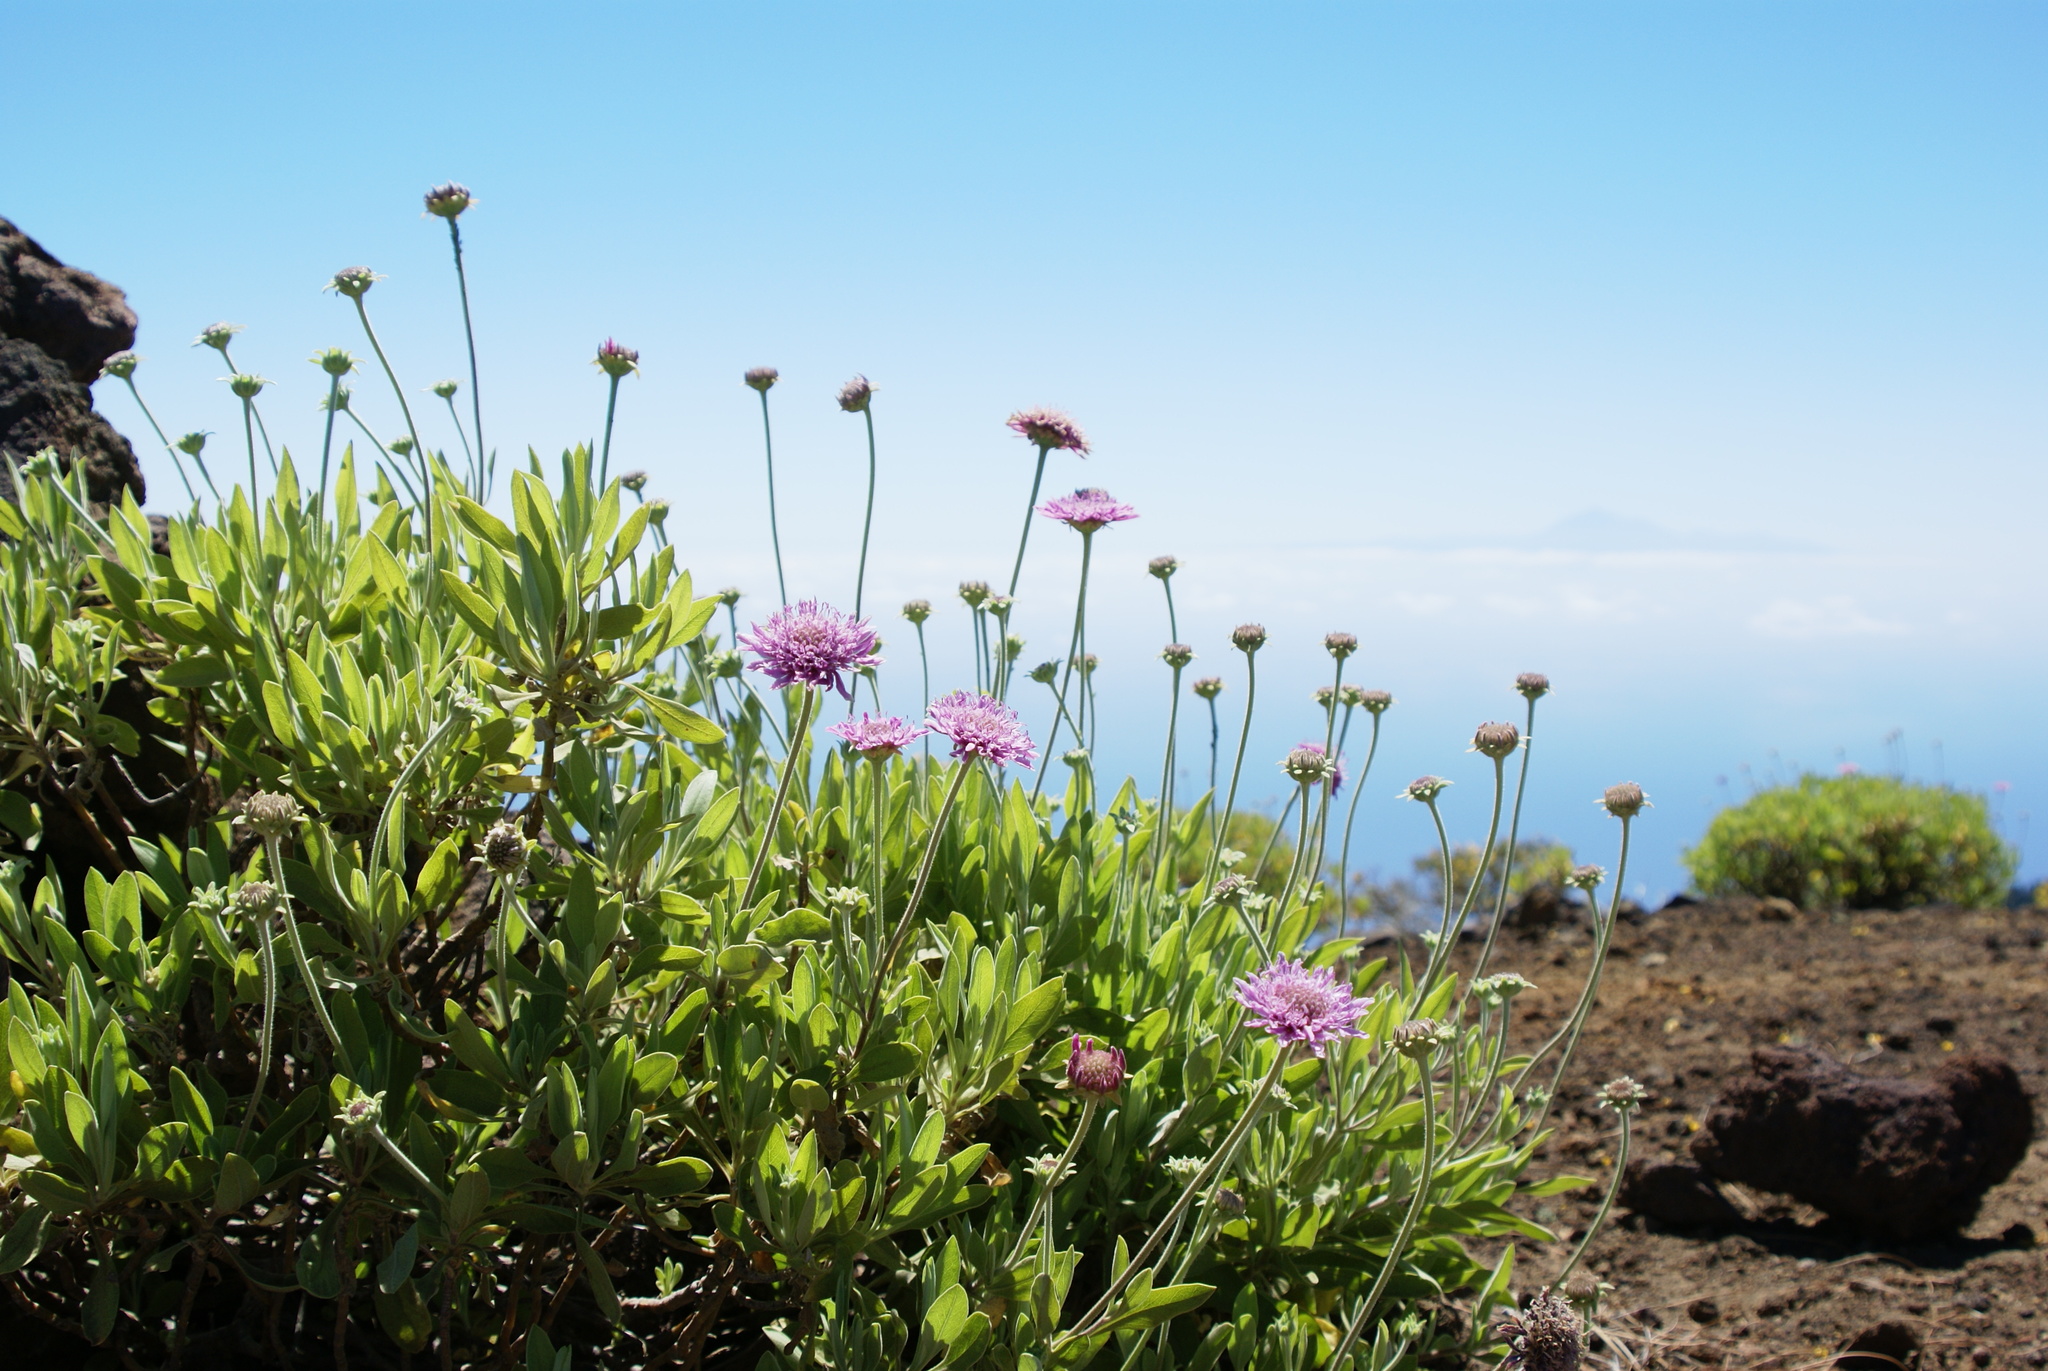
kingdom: Plantae
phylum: Tracheophyta
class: Magnoliopsida
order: Dipsacales
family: Caprifoliaceae
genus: Pterocephalus
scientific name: Pterocephalus porphyranthus
